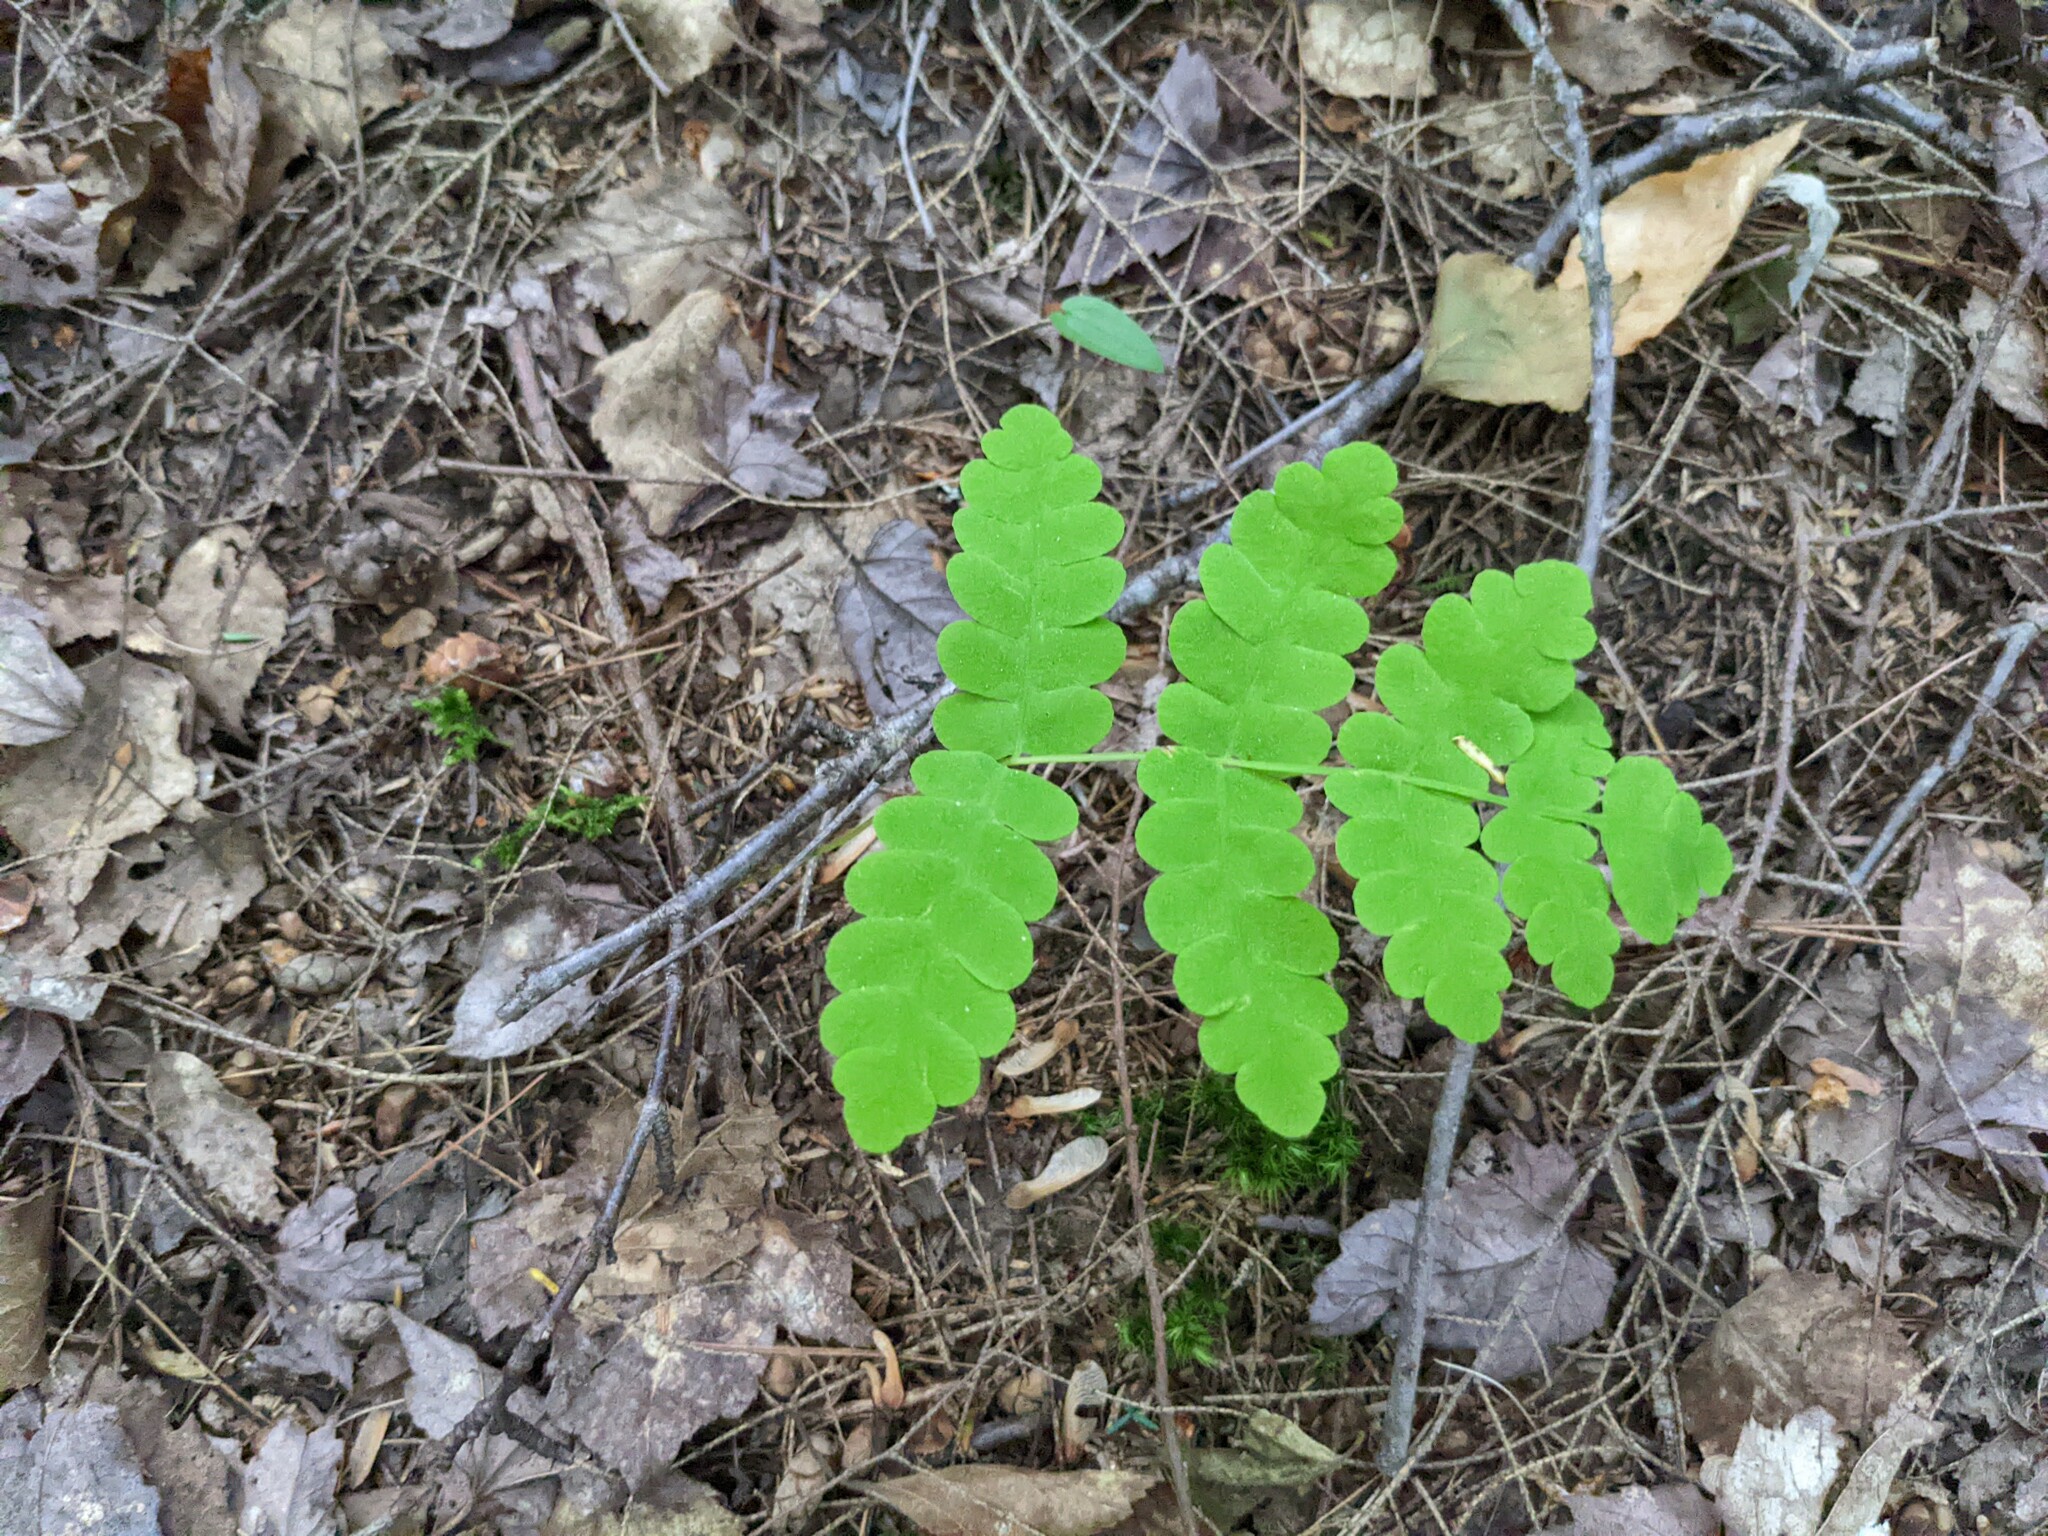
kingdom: Plantae
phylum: Tracheophyta
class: Polypodiopsida
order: Osmundales
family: Osmundaceae
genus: Claytosmunda
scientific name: Claytosmunda claytoniana
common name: Clayton's fern
